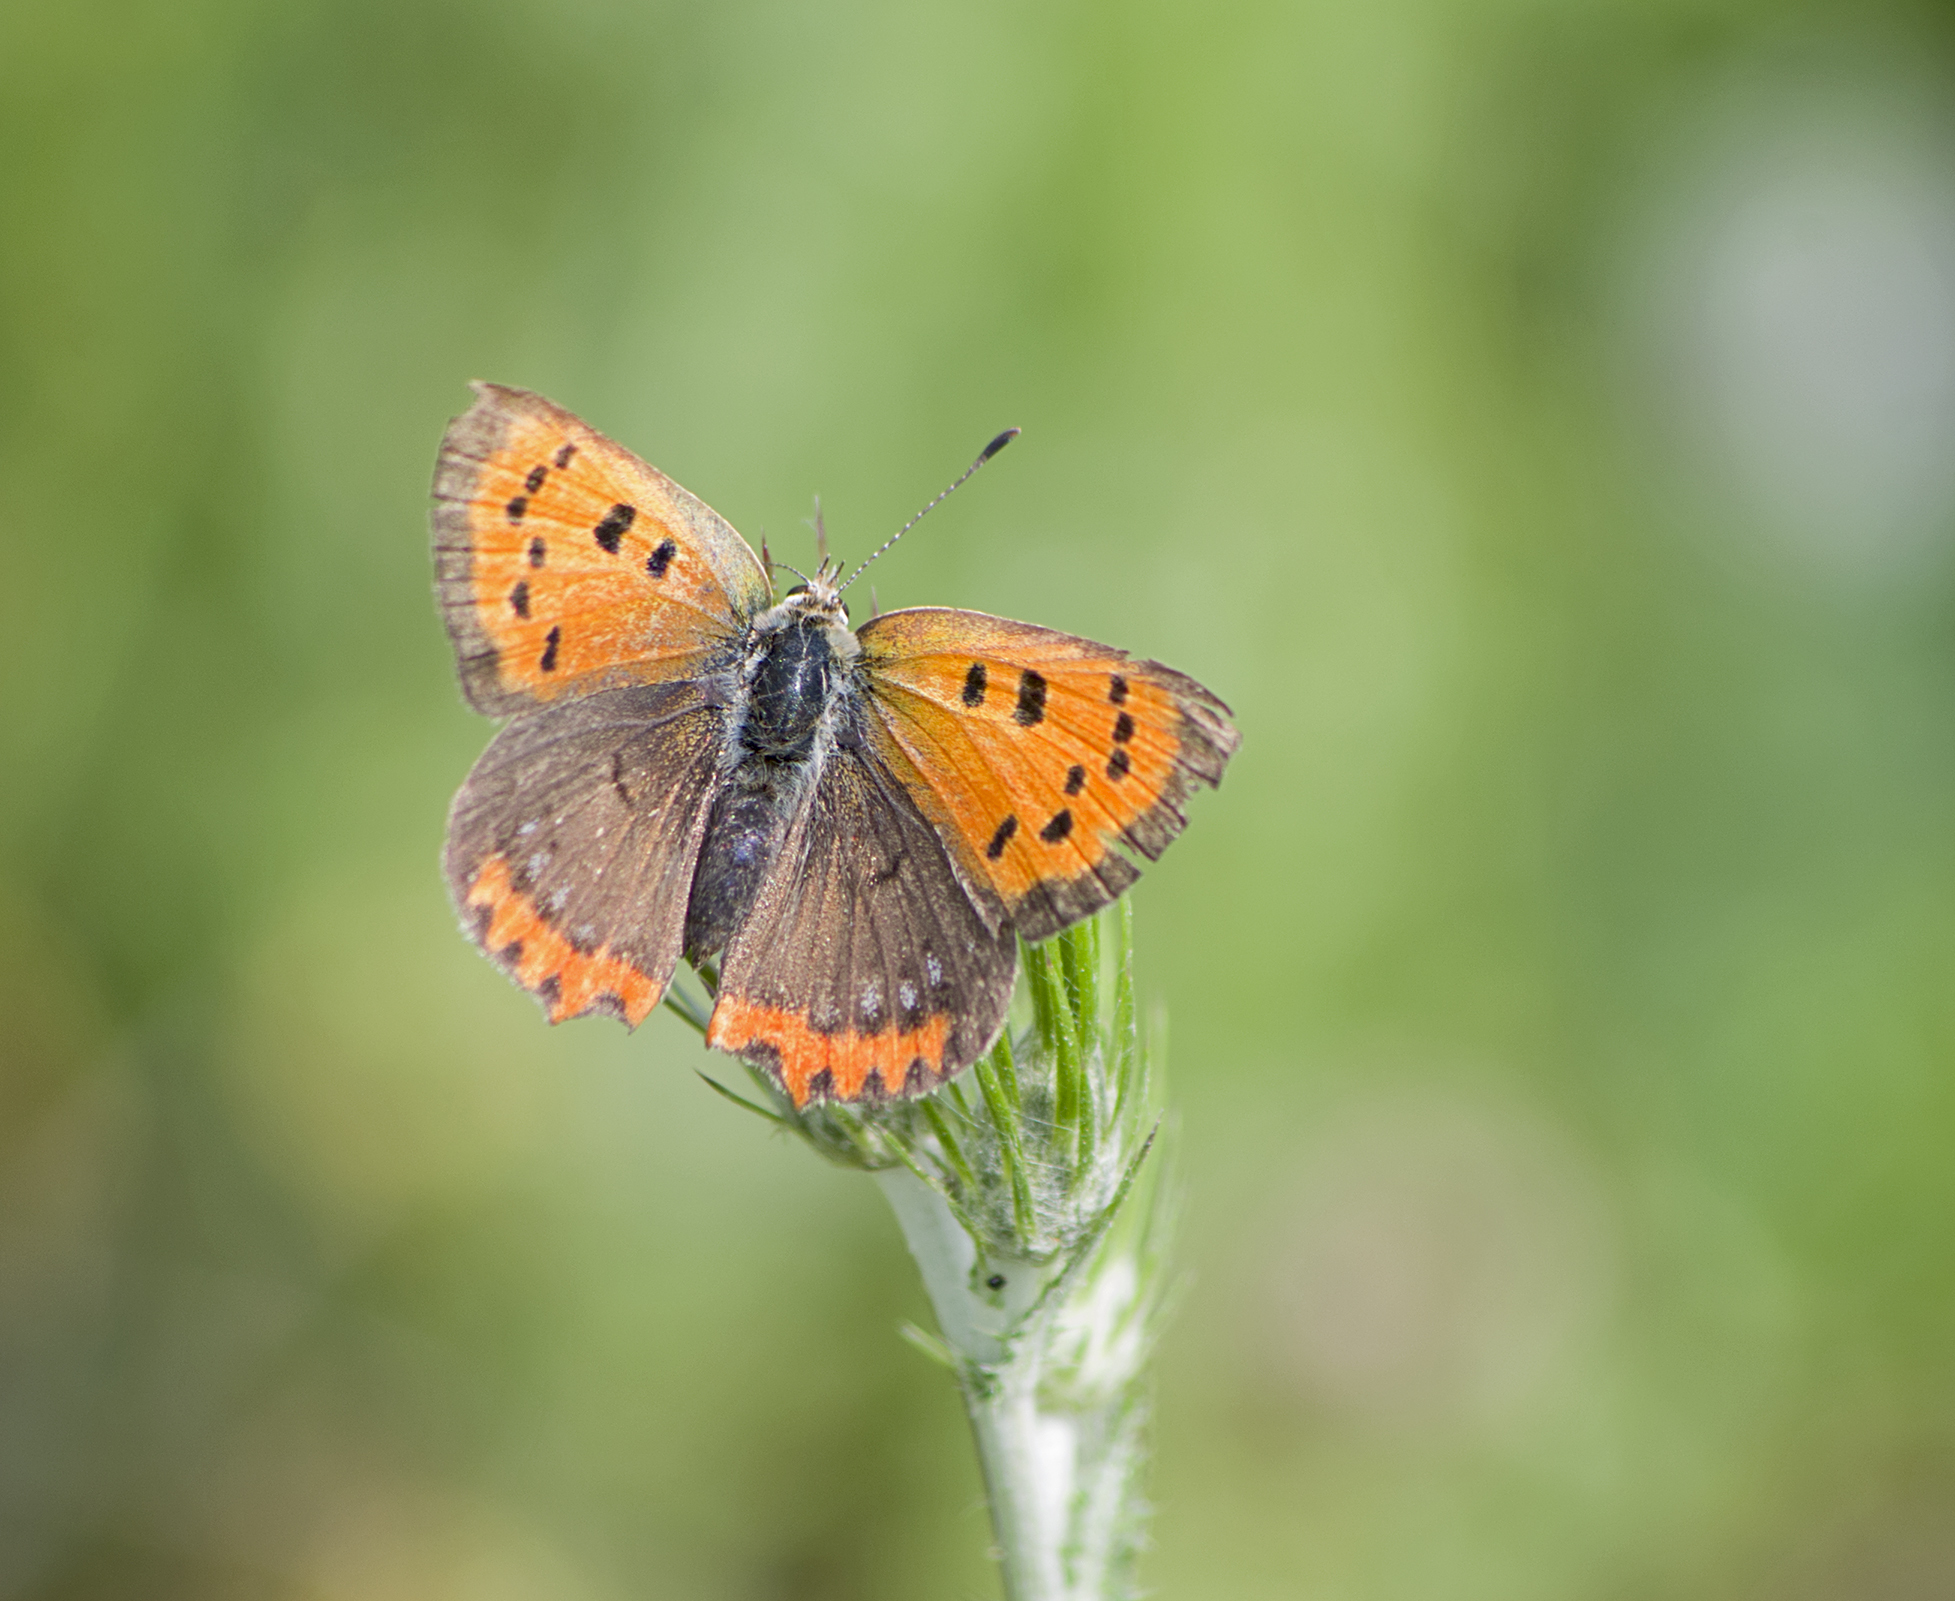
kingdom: Animalia
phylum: Arthropoda
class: Insecta
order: Lepidoptera
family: Lycaenidae
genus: Lycaena
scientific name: Lycaena phlaeas
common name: Small copper
